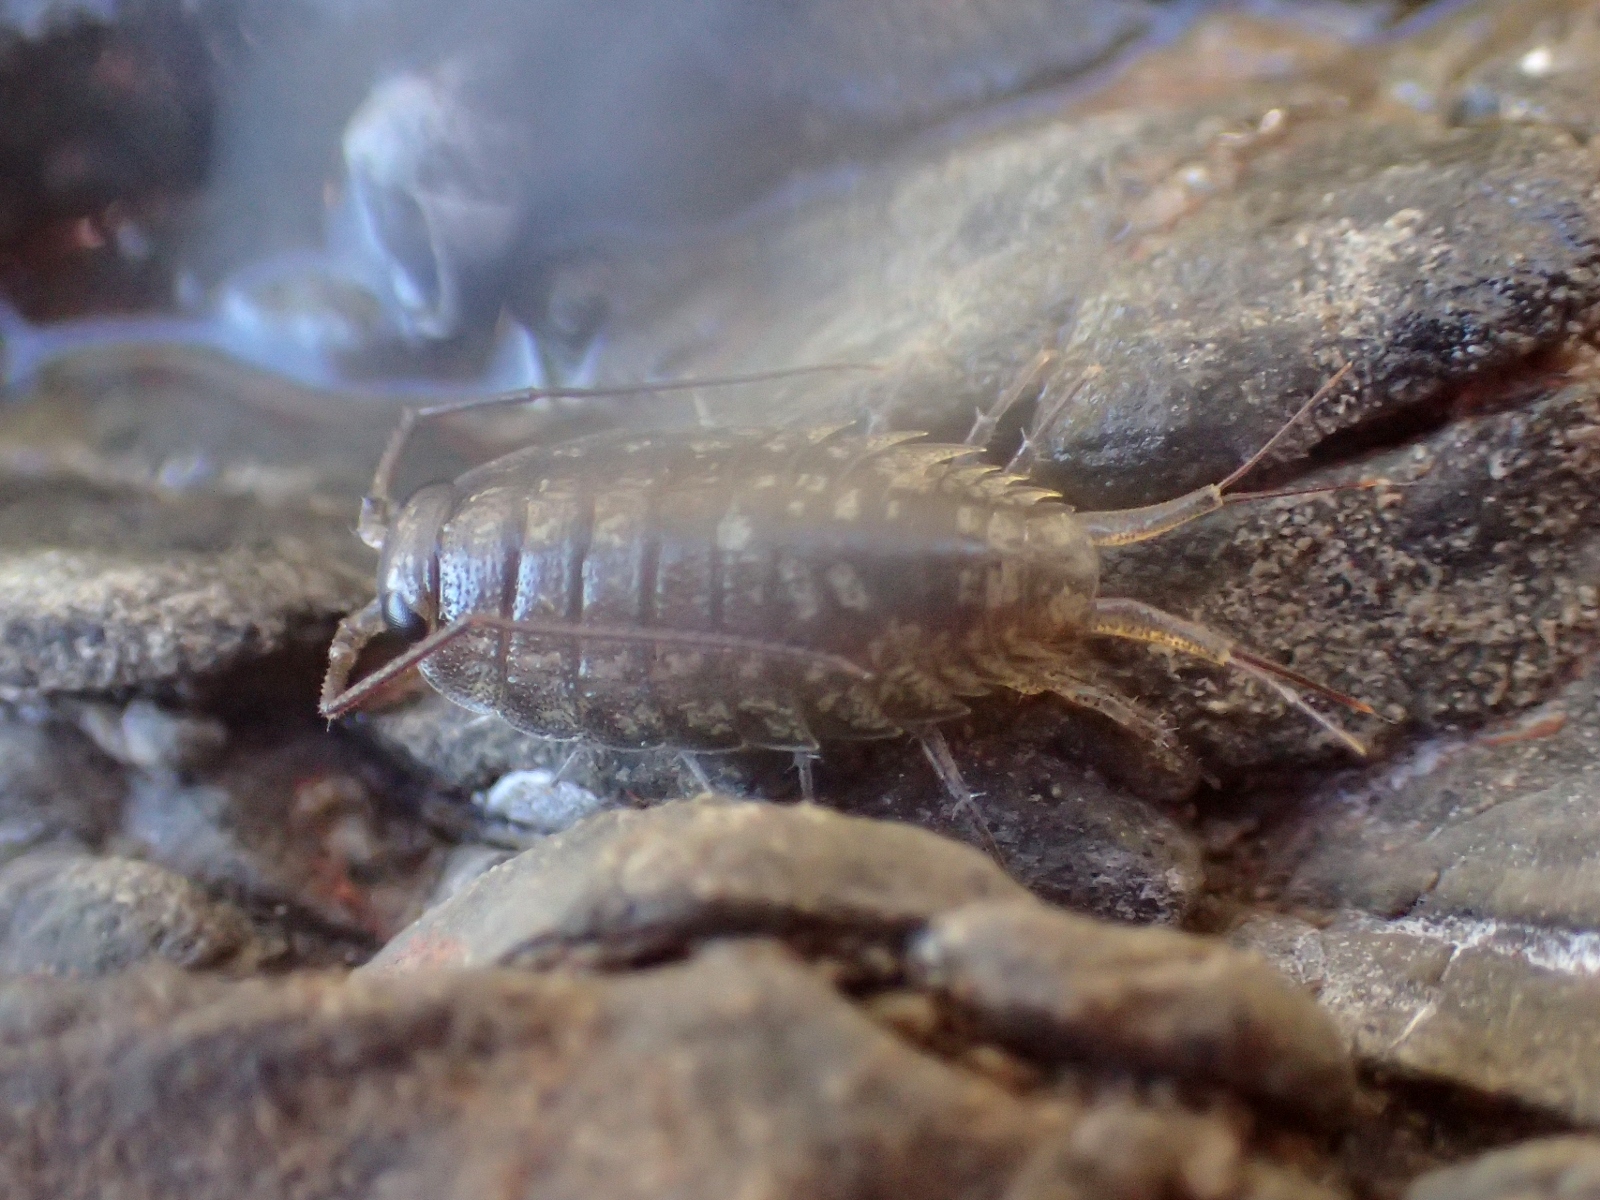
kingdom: Animalia
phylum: Arthropoda
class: Malacostraca
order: Isopoda
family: Ligiidae
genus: Ligia
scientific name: Ligia novizealandiae
